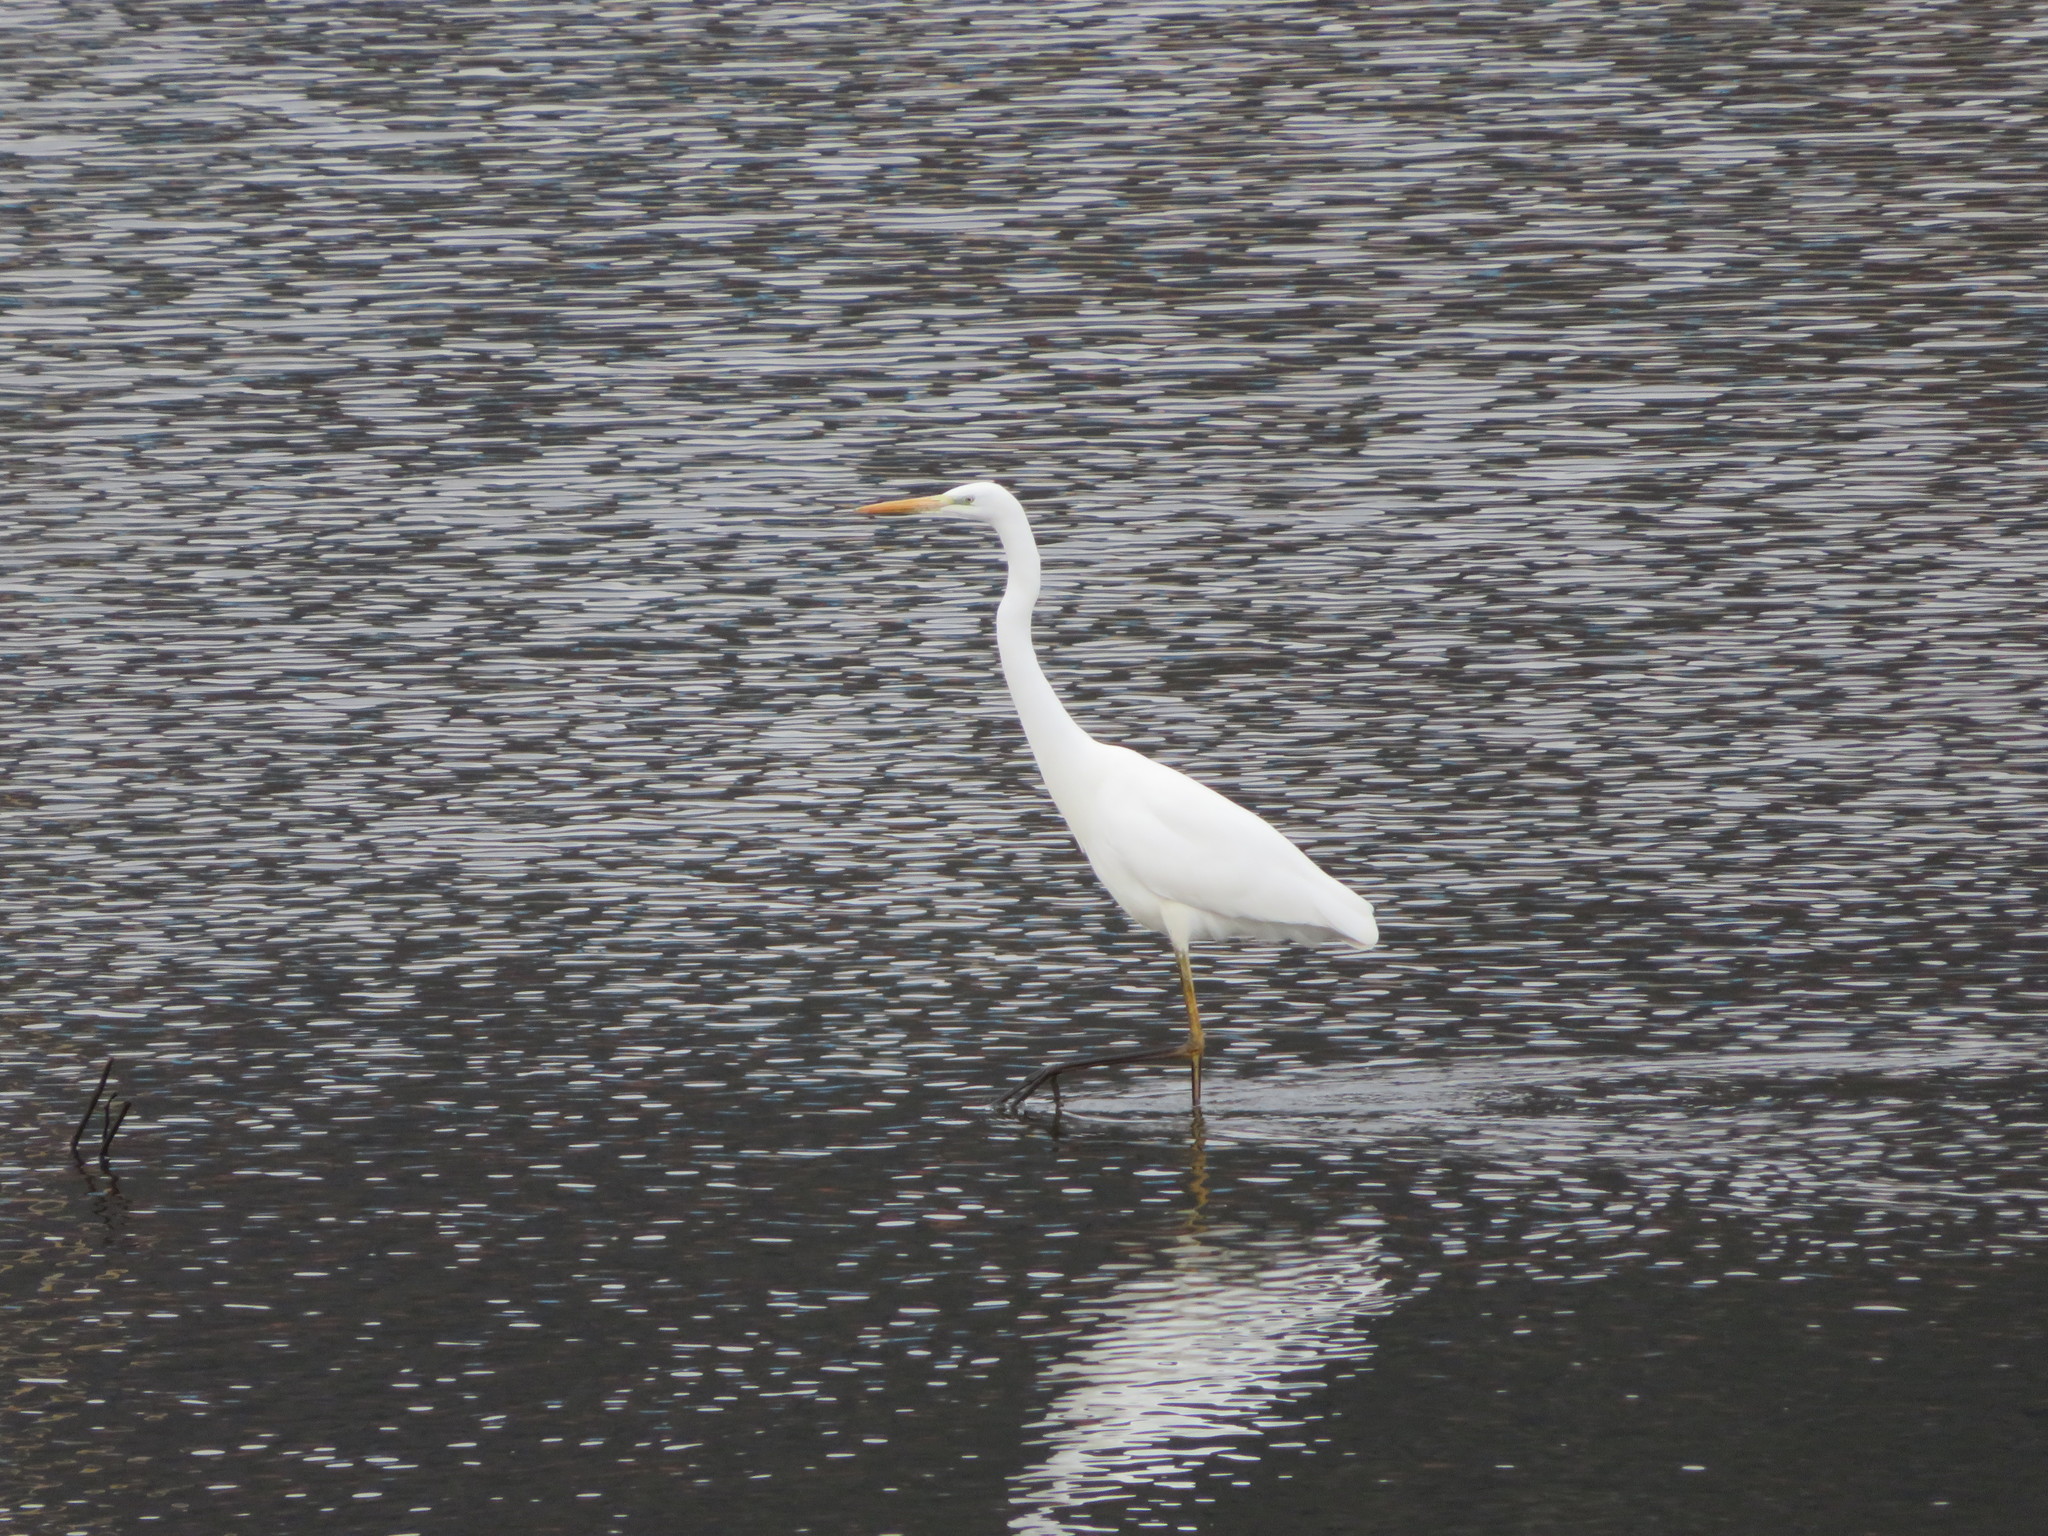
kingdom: Animalia
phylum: Chordata
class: Aves
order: Pelecaniformes
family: Ardeidae
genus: Ardea
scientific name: Ardea alba
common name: Great egret
